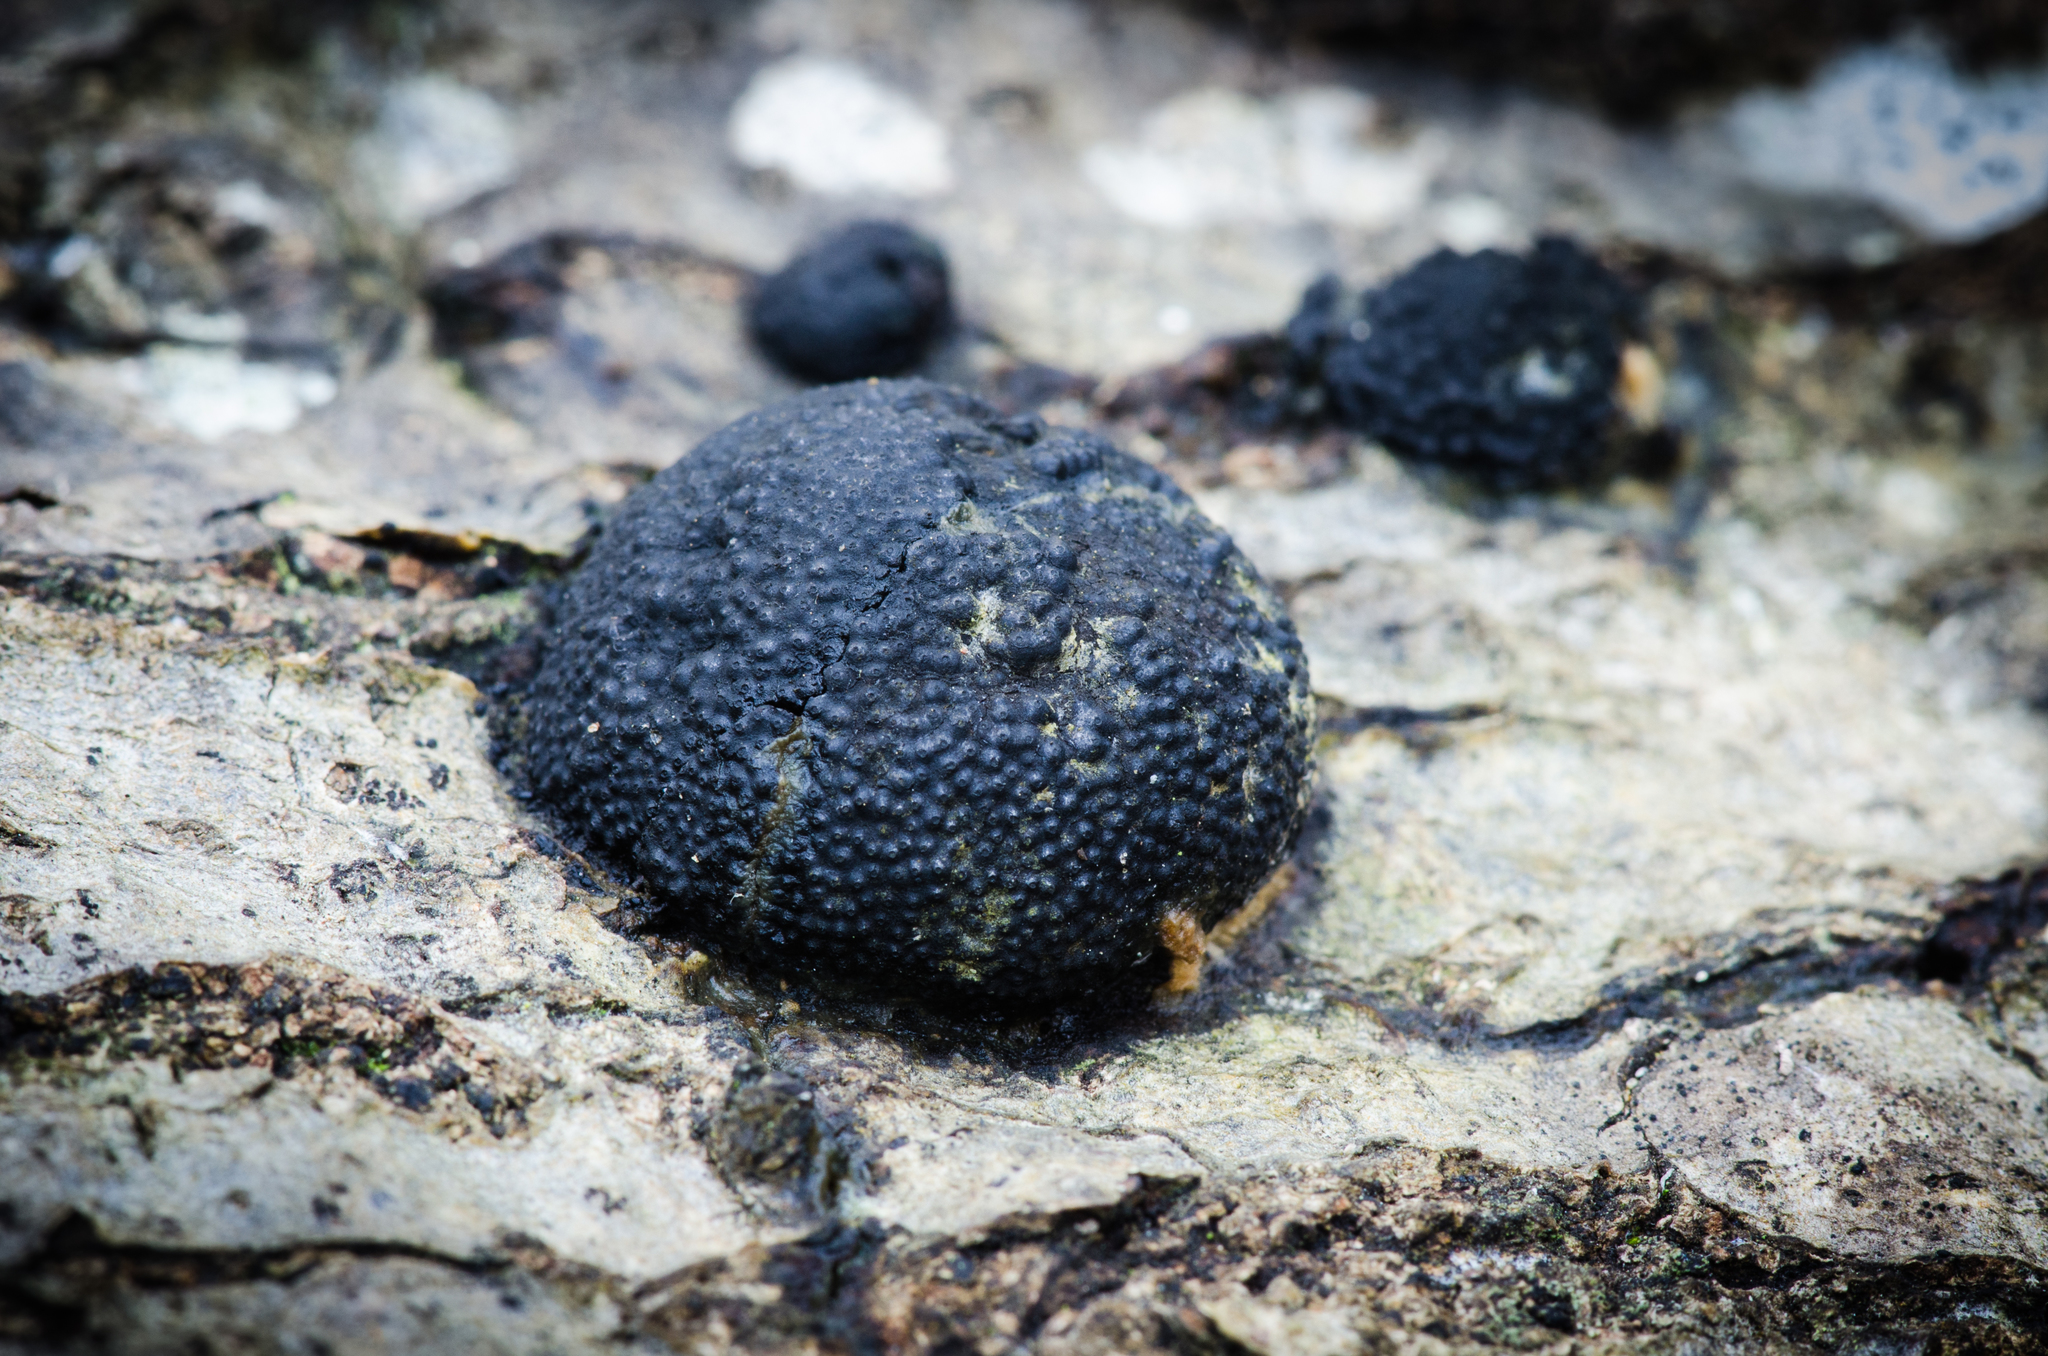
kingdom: Fungi
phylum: Ascomycota
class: Sordariomycetes
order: Xylariales
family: Hypoxylaceae
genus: Annulohypoxylon
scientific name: Annulohypoxylon thouarsianum
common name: Cramp balls
